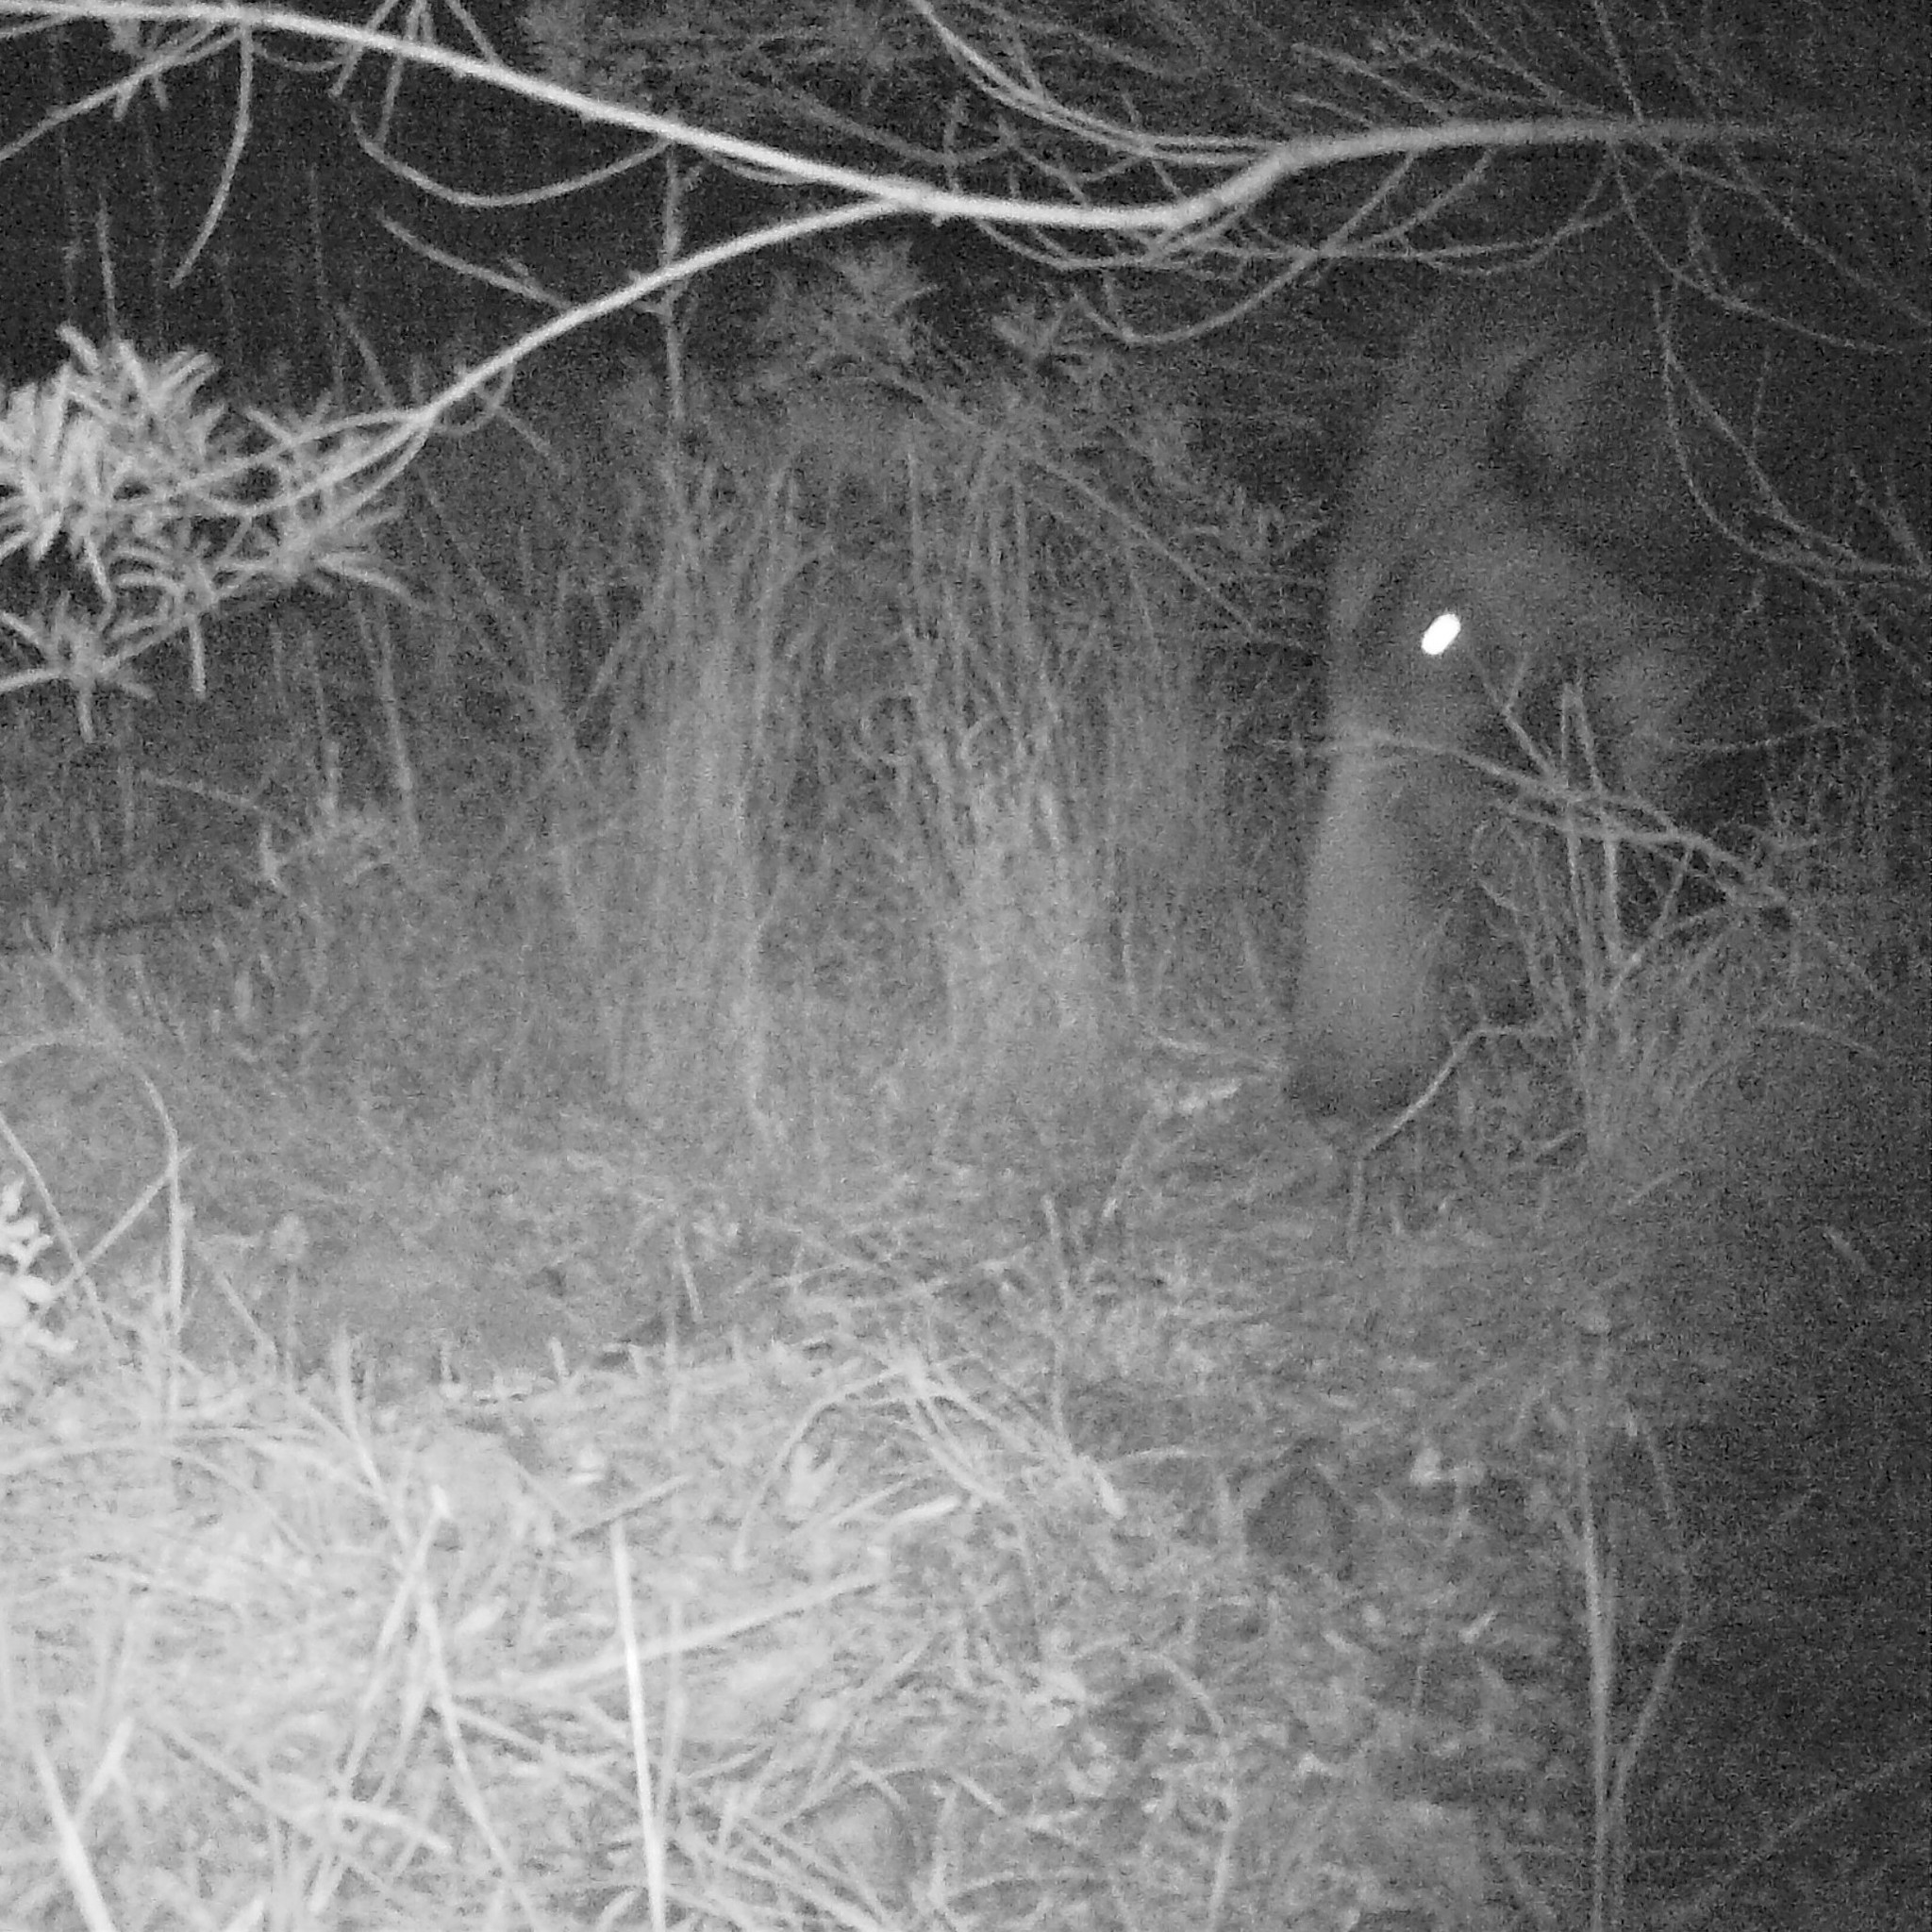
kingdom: Animalia
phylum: Chordata
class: Mammalia
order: Artiodactyla
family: Suidae
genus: Potamochoerus
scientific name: Potamochoerus larvatus
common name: Bushpig
